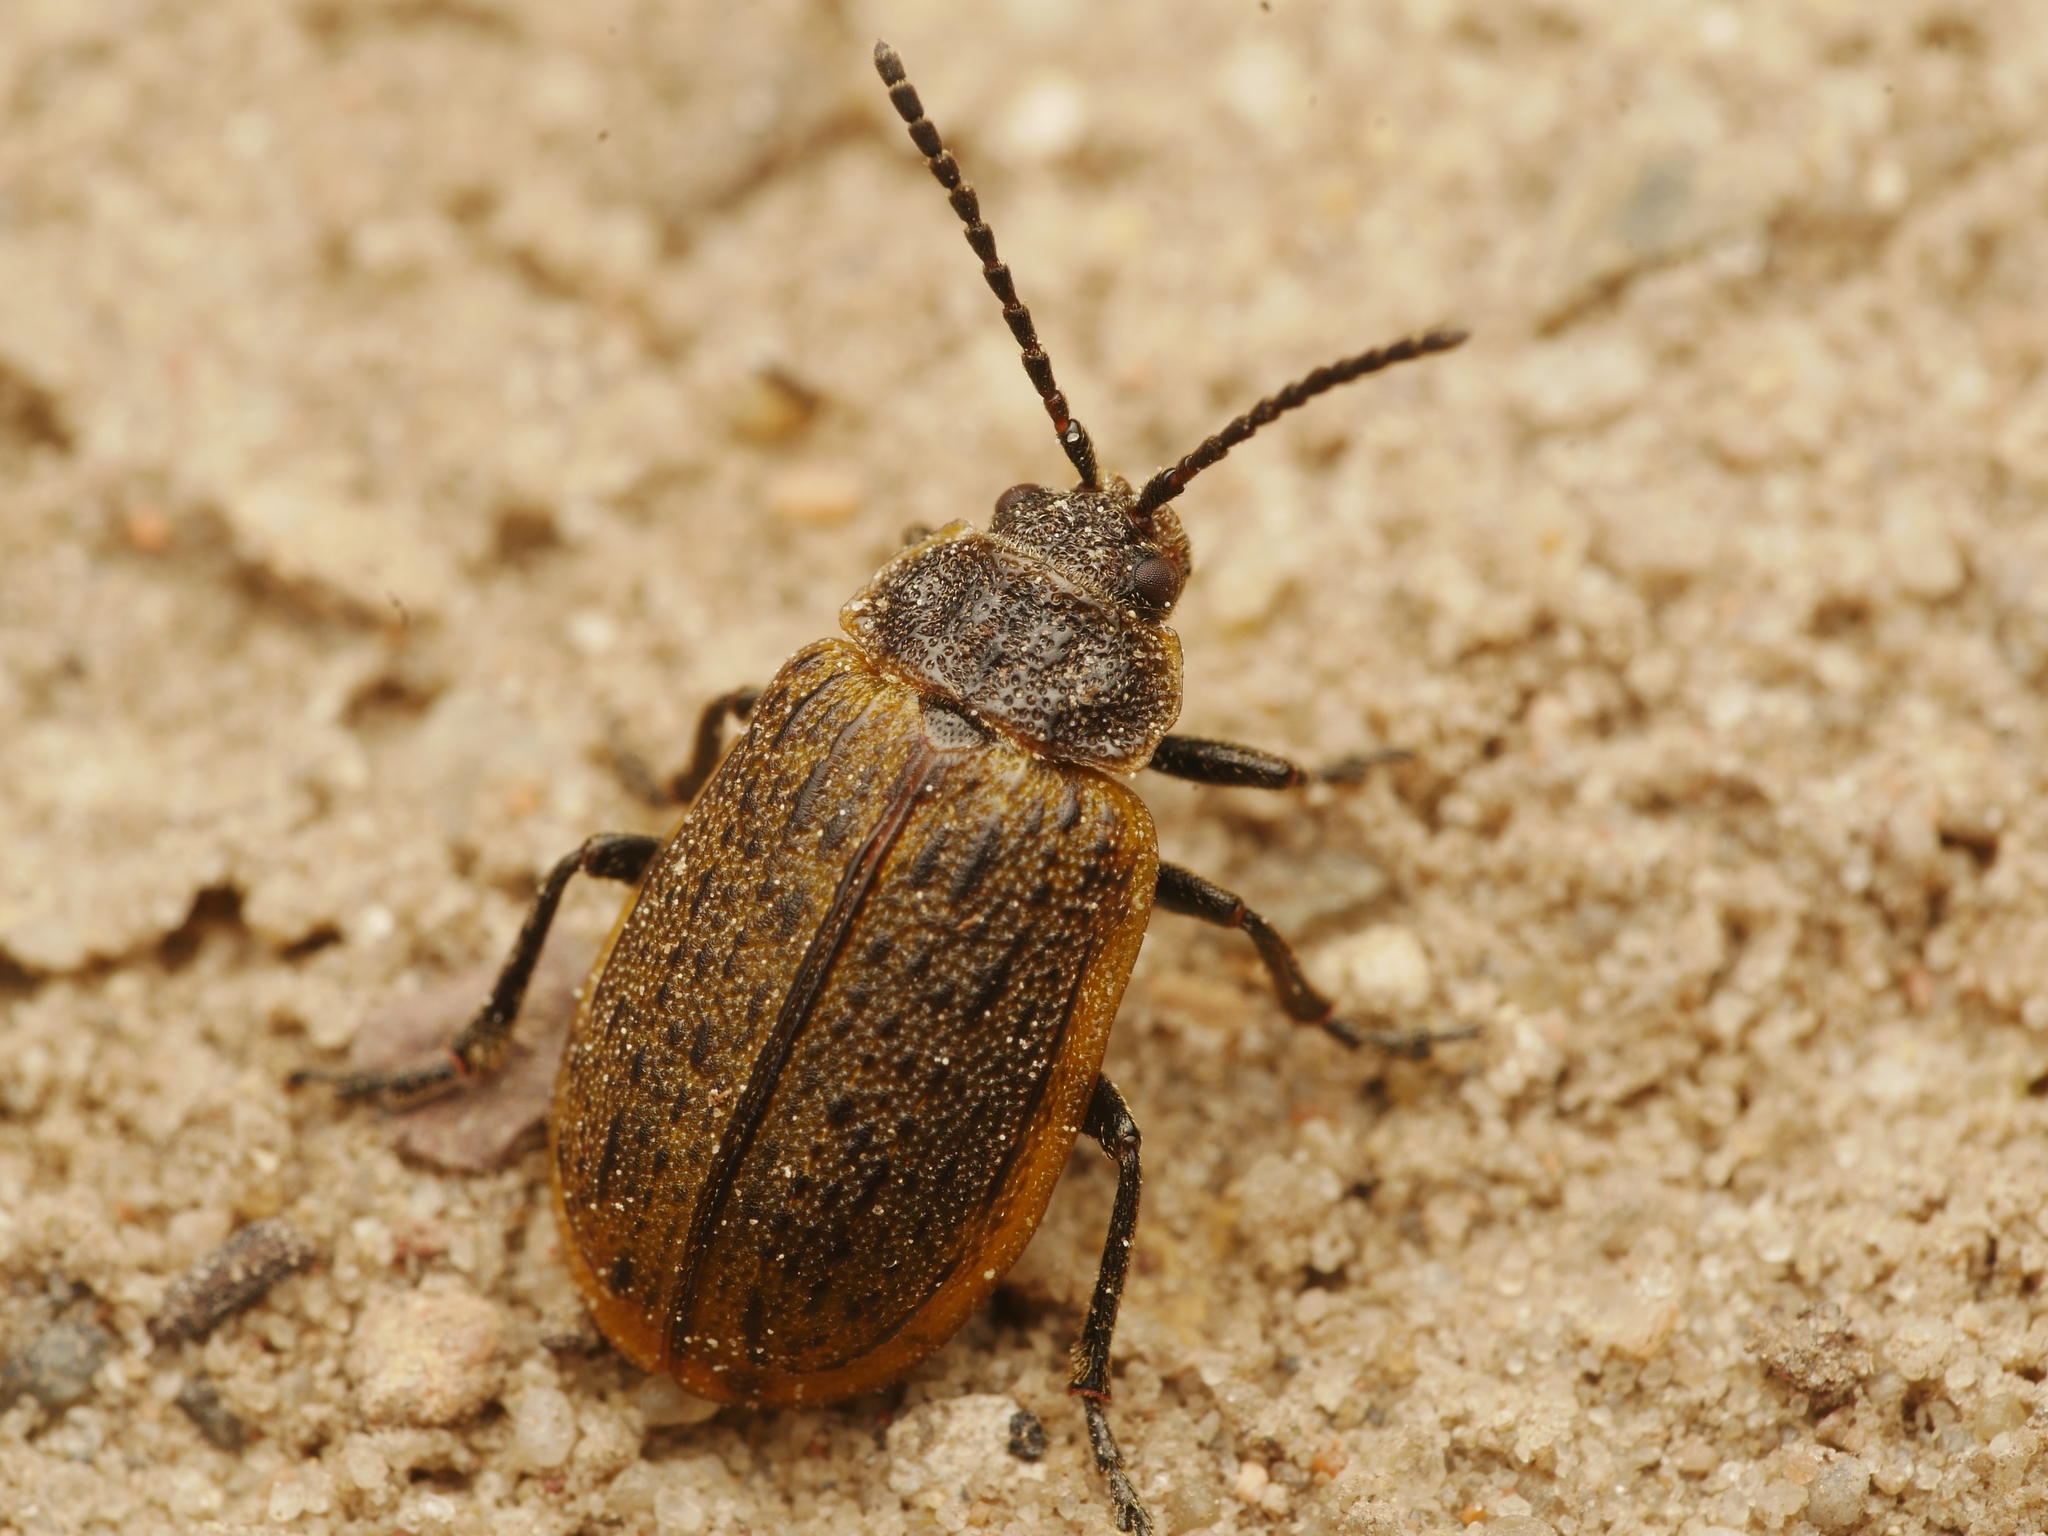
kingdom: Animalia
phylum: Arthropoda
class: Insecta
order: Coleoptera
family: Chrysomelidae
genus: Galeruca
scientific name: Galeruca interrupta
